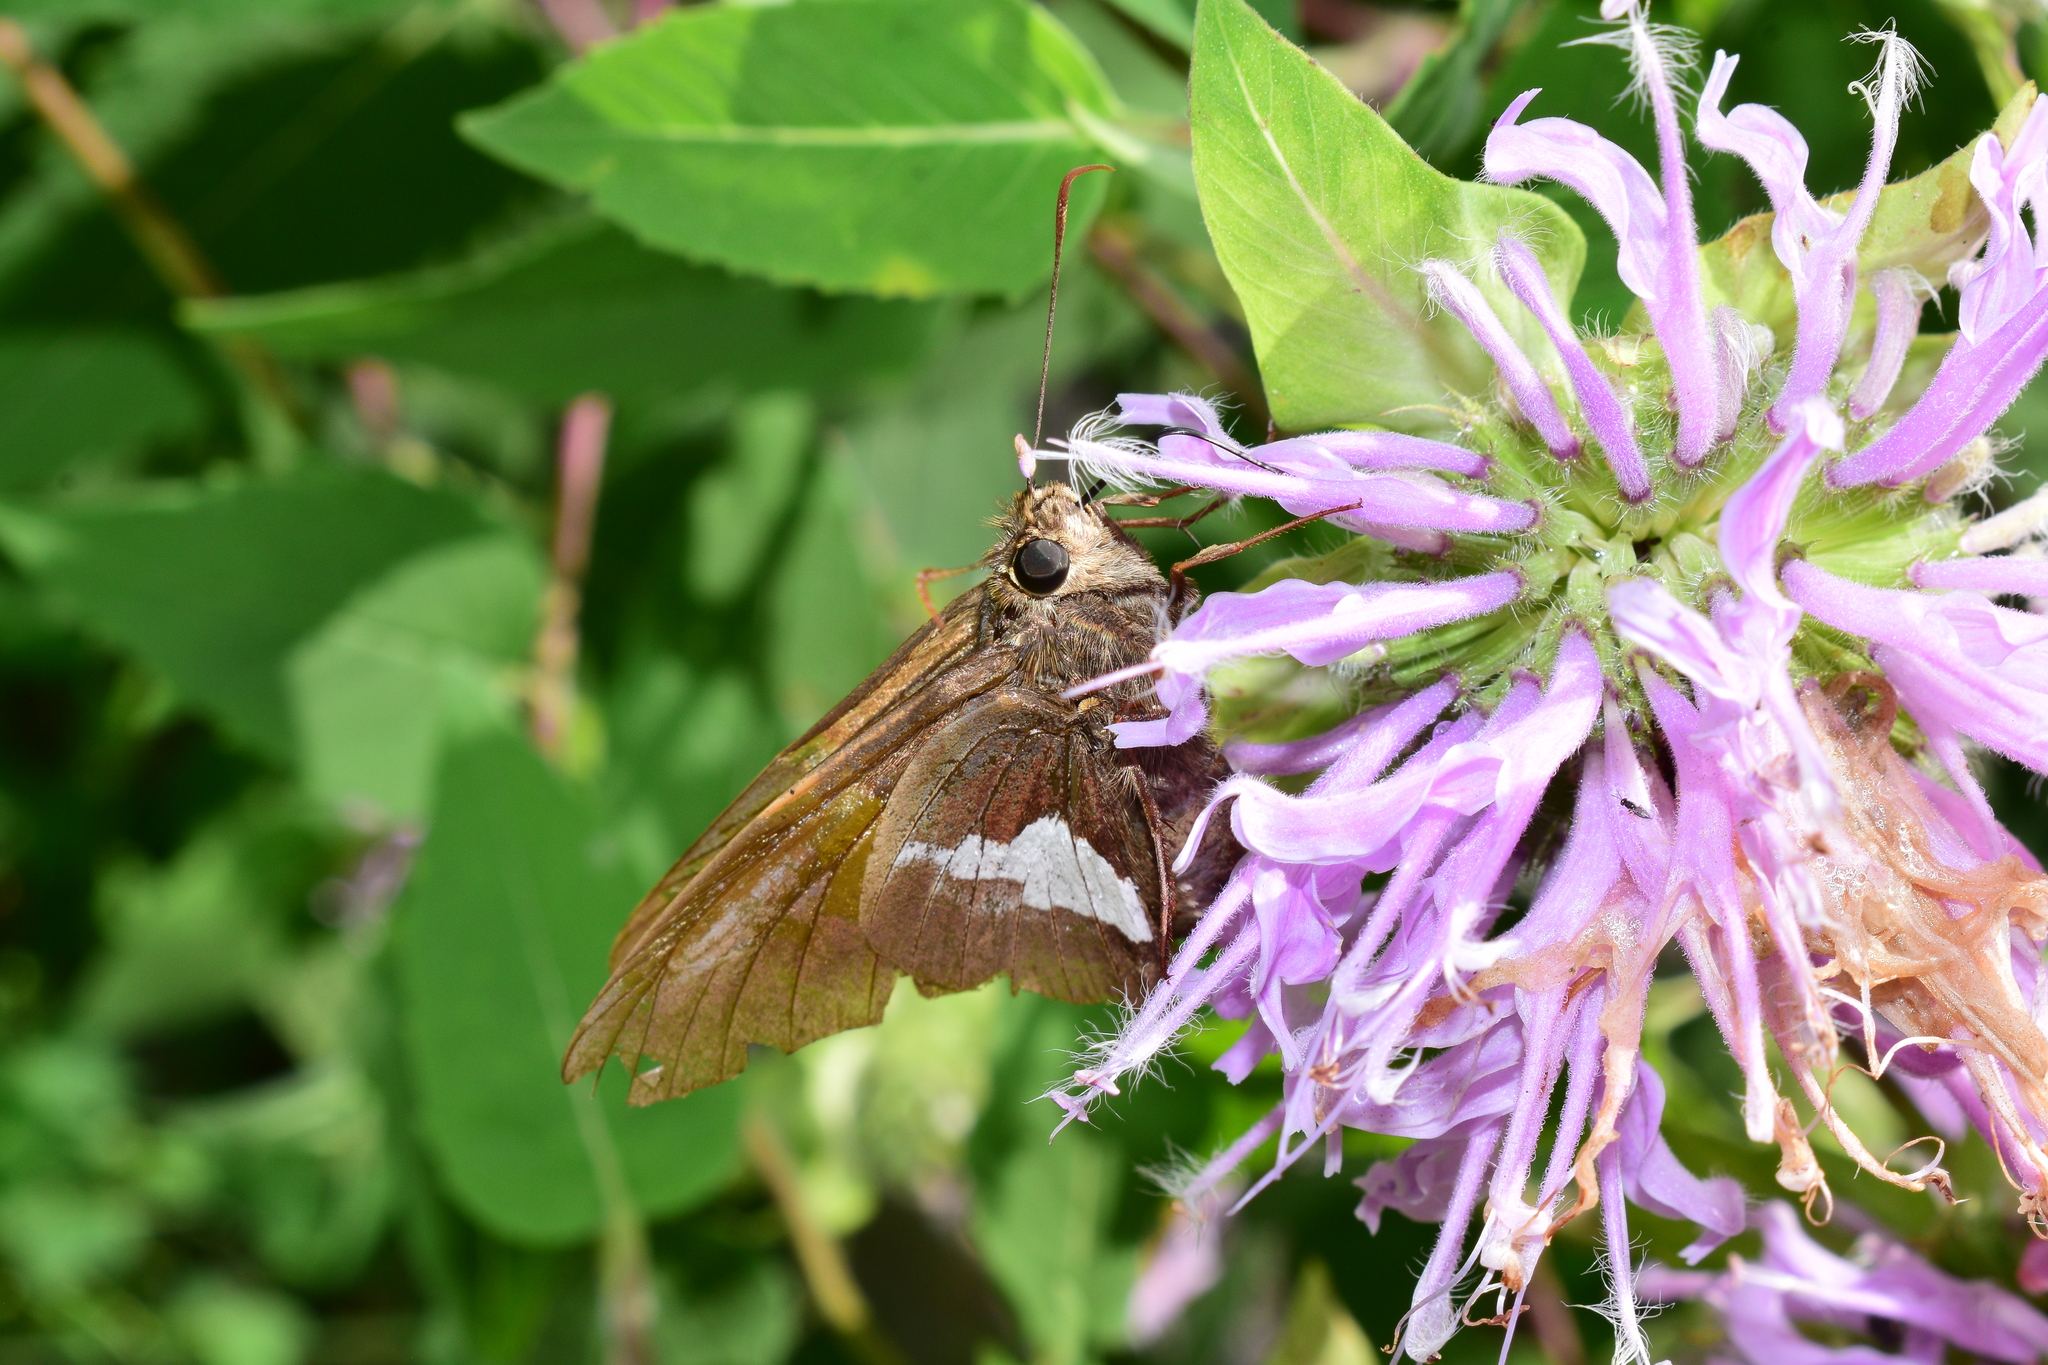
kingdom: Animalia
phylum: Arthropoda
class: Insecta
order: Lepidoptera
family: Hesperiidae
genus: Epargyreus
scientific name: Epargyreus clarus
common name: Silver-spotted skipper
